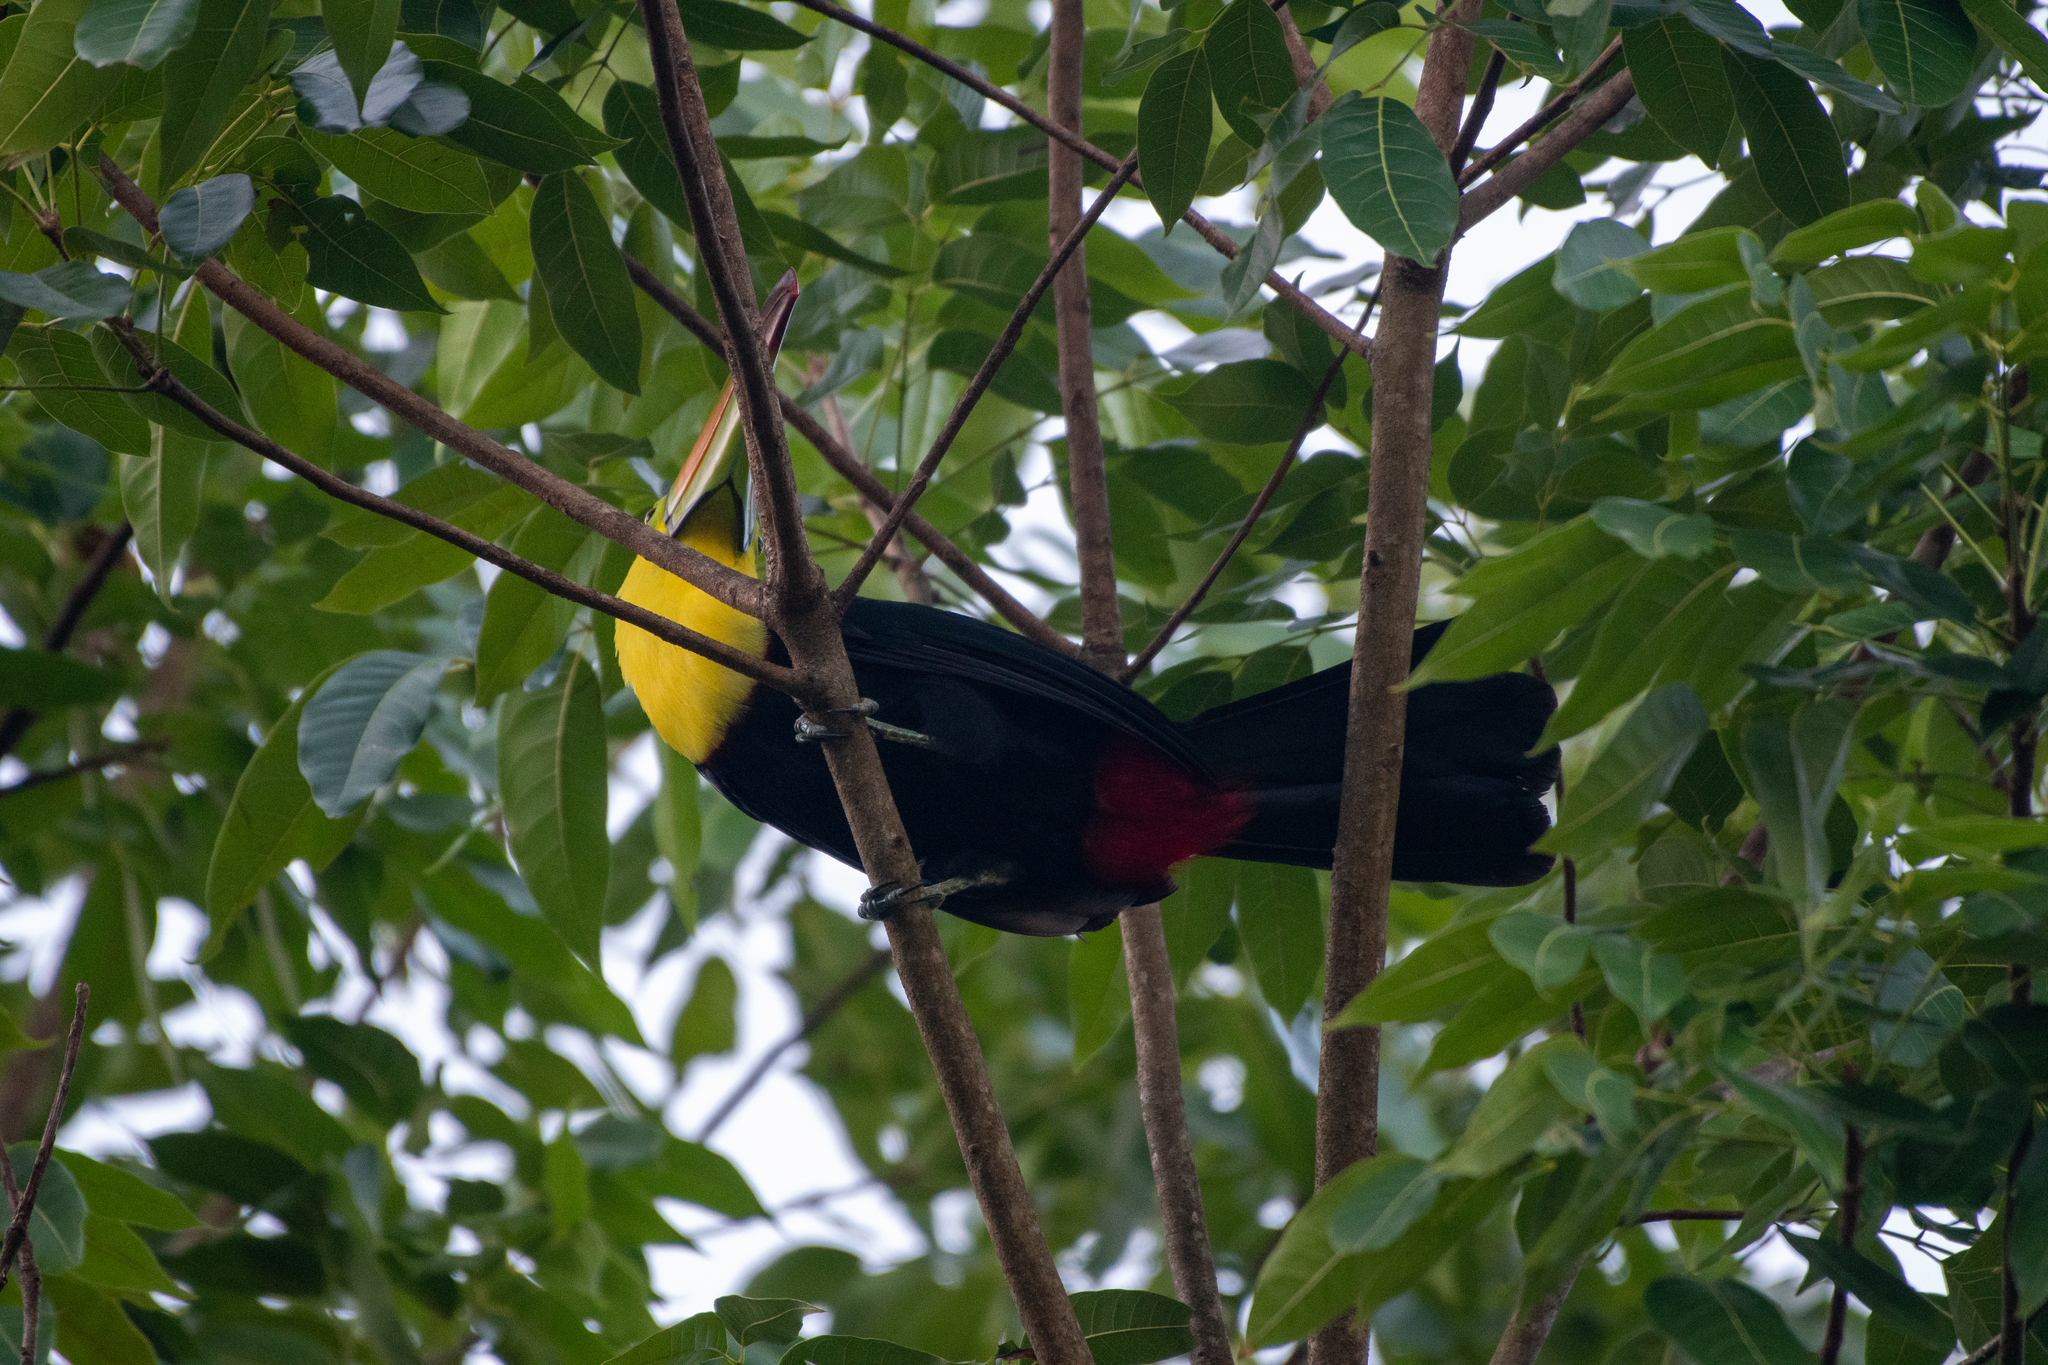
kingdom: Animalia
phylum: Chordata
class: Aves
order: Piciformes
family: Ramphastidae
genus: Ramphastos
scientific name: Ramphastos sulfuratus
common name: Keel-billed toucan
